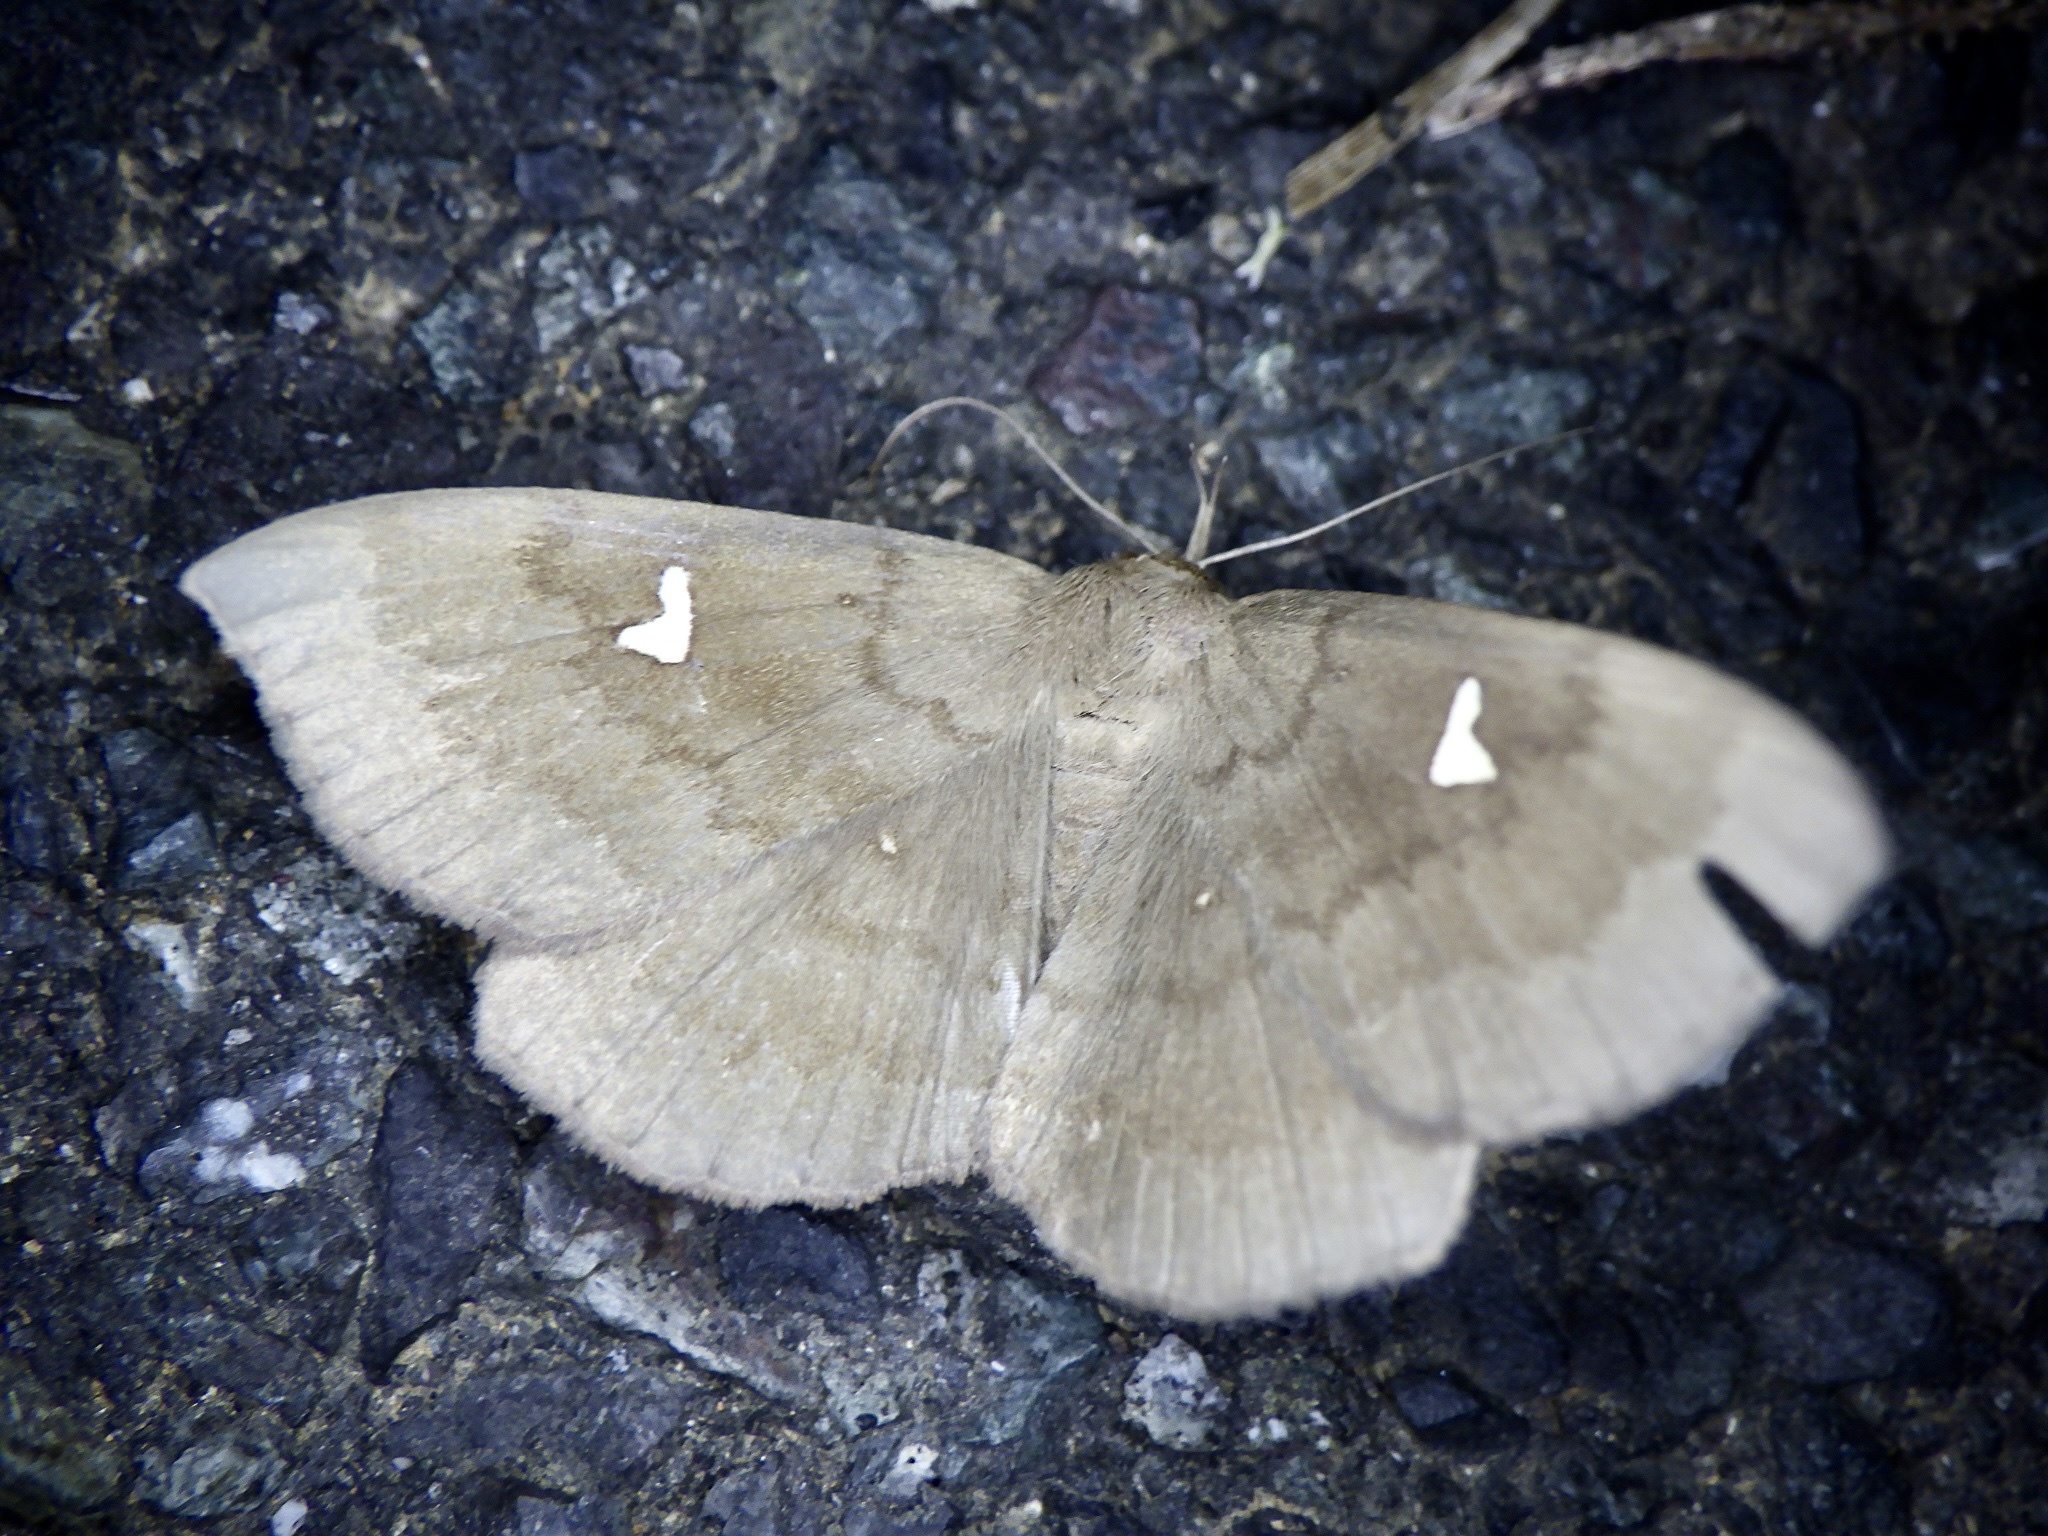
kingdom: Animalia
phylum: Arthropoda
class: Insecta
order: Lepidoptera
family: Erebidae
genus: Edessena
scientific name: Edessena hamada
